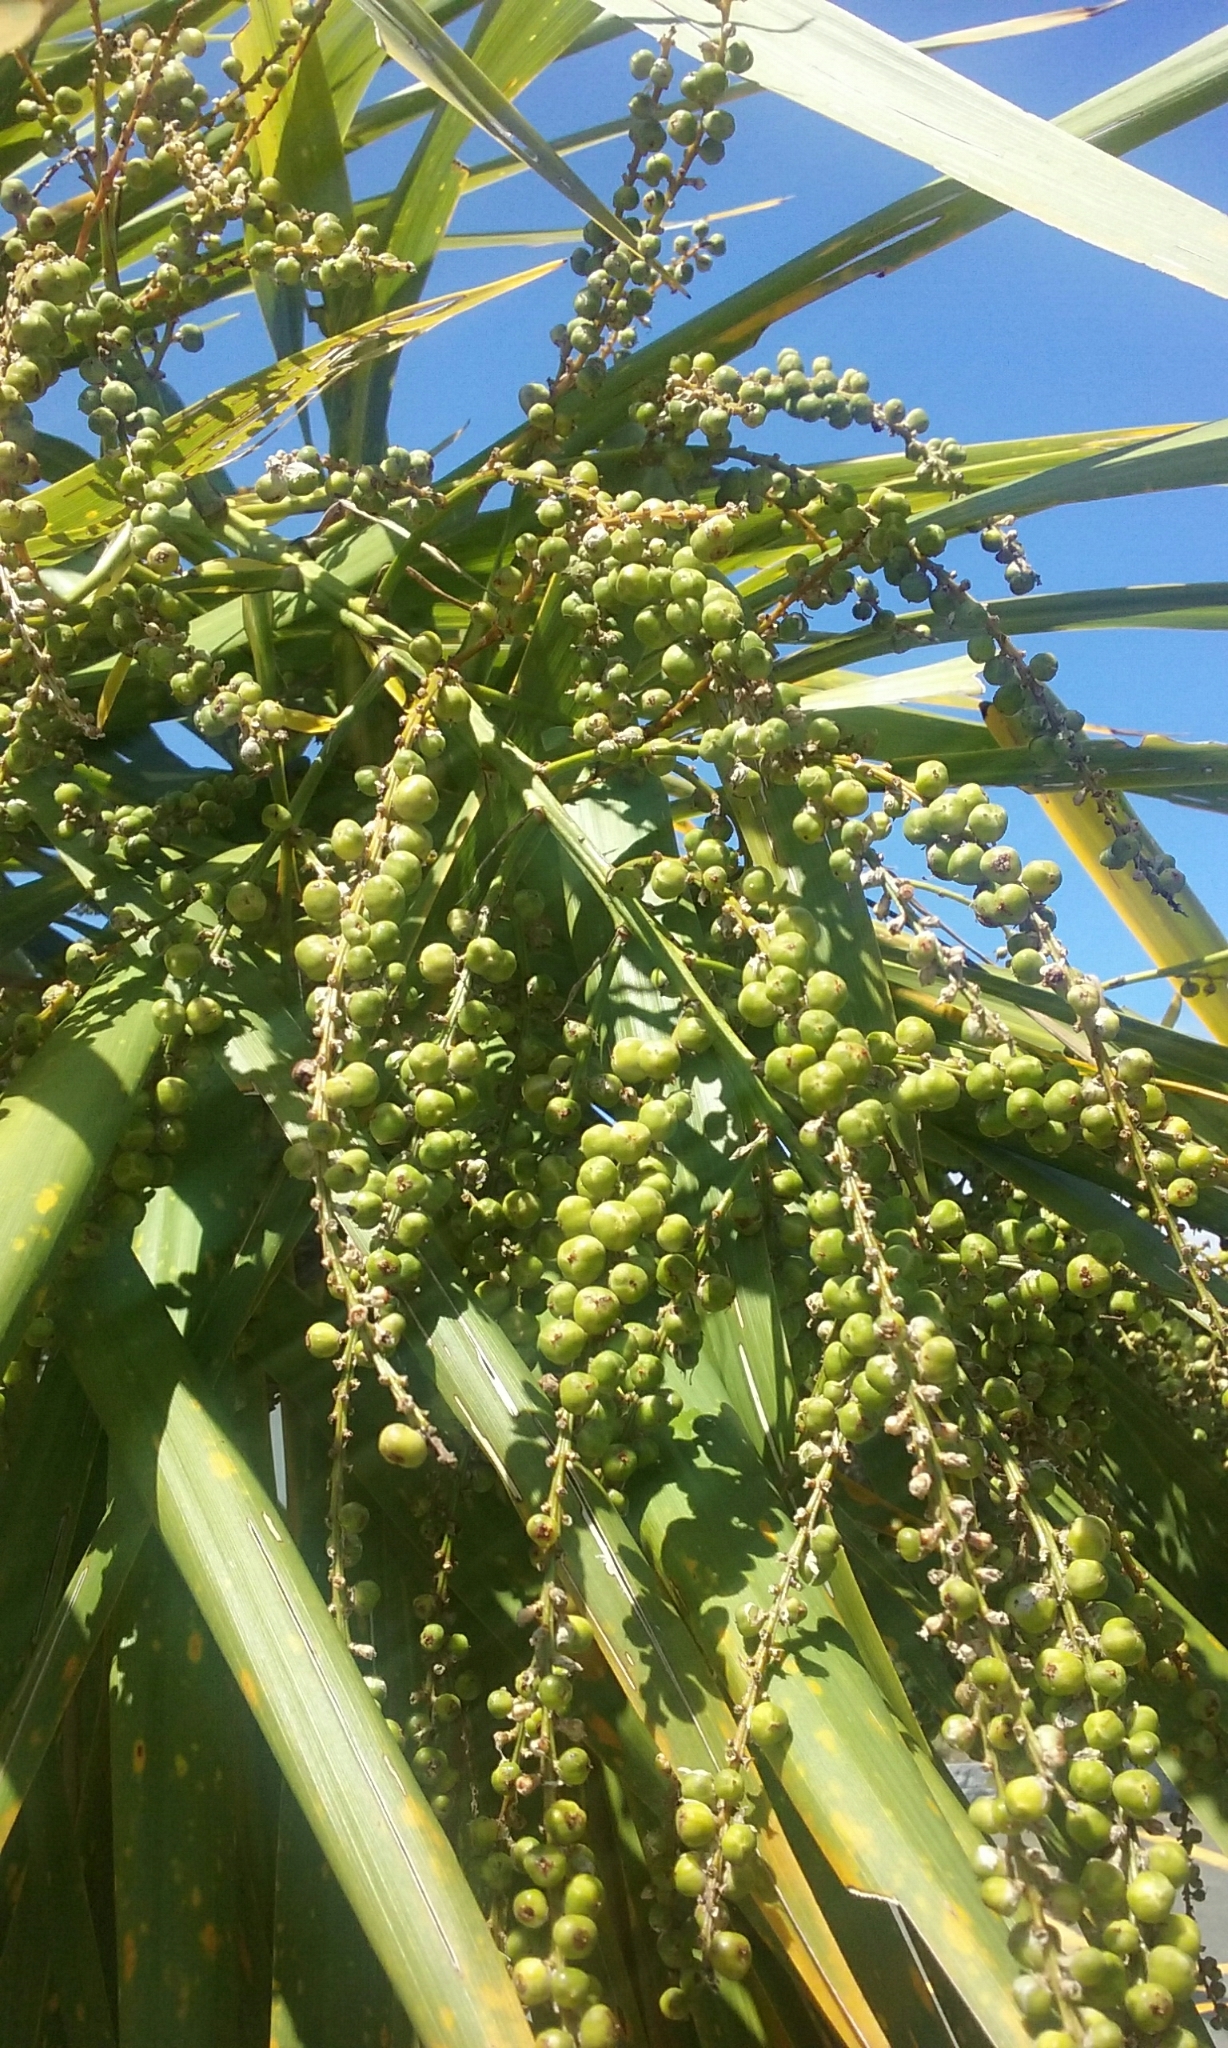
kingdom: Plantae
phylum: Tracheophyta
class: Liliopsida
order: Asparagales
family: Asparagaceae
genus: Cordyline
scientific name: Cordyline australis
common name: Cabbage-palm
